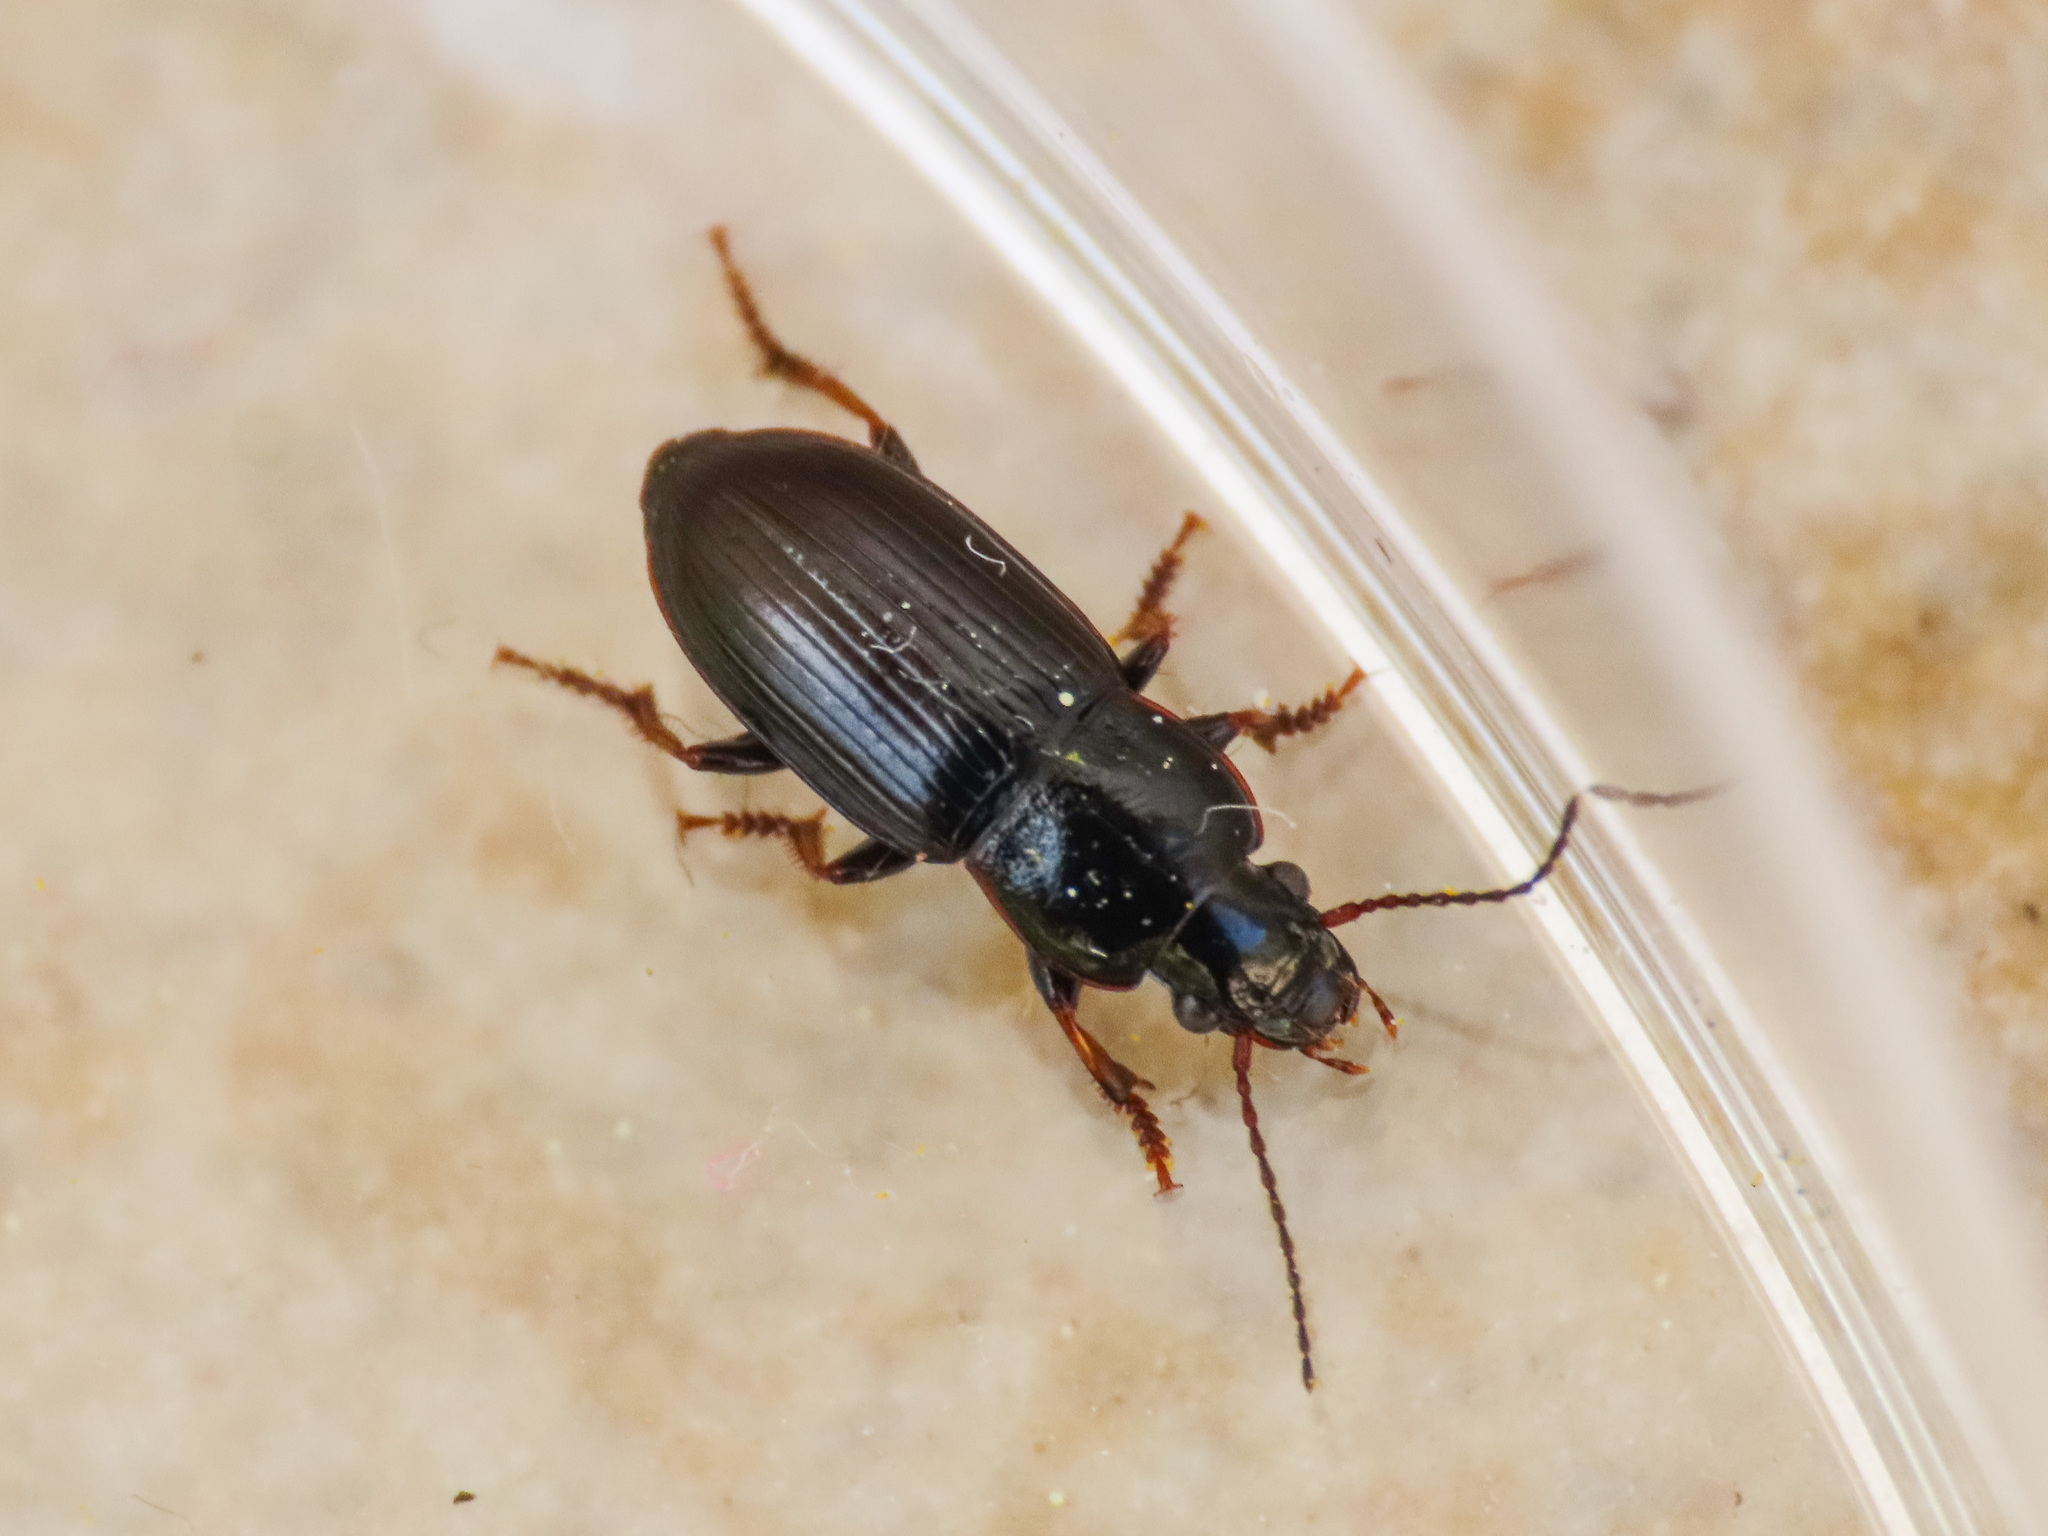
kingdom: Animalia
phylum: Arthropoda
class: Insecta
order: Coleoptera
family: Carabidae
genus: Harpalus
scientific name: Harpalus pygmaeus
